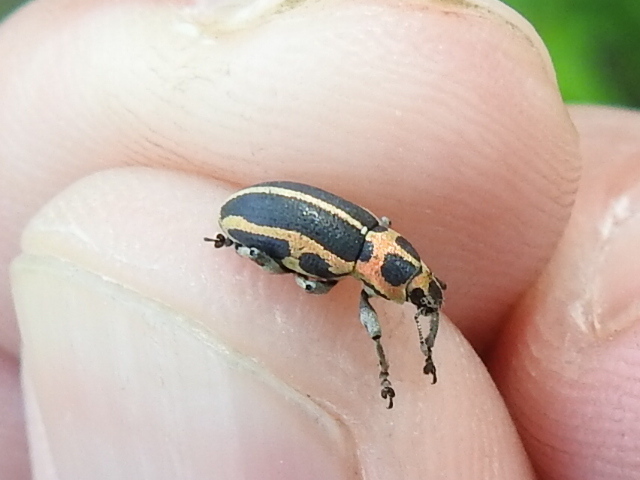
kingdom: Animalia
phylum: Arthropoda
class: Insecta
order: Coleoptera
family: Curculionidae
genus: Eudiagogus
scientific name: Eudiagogus pulcher
